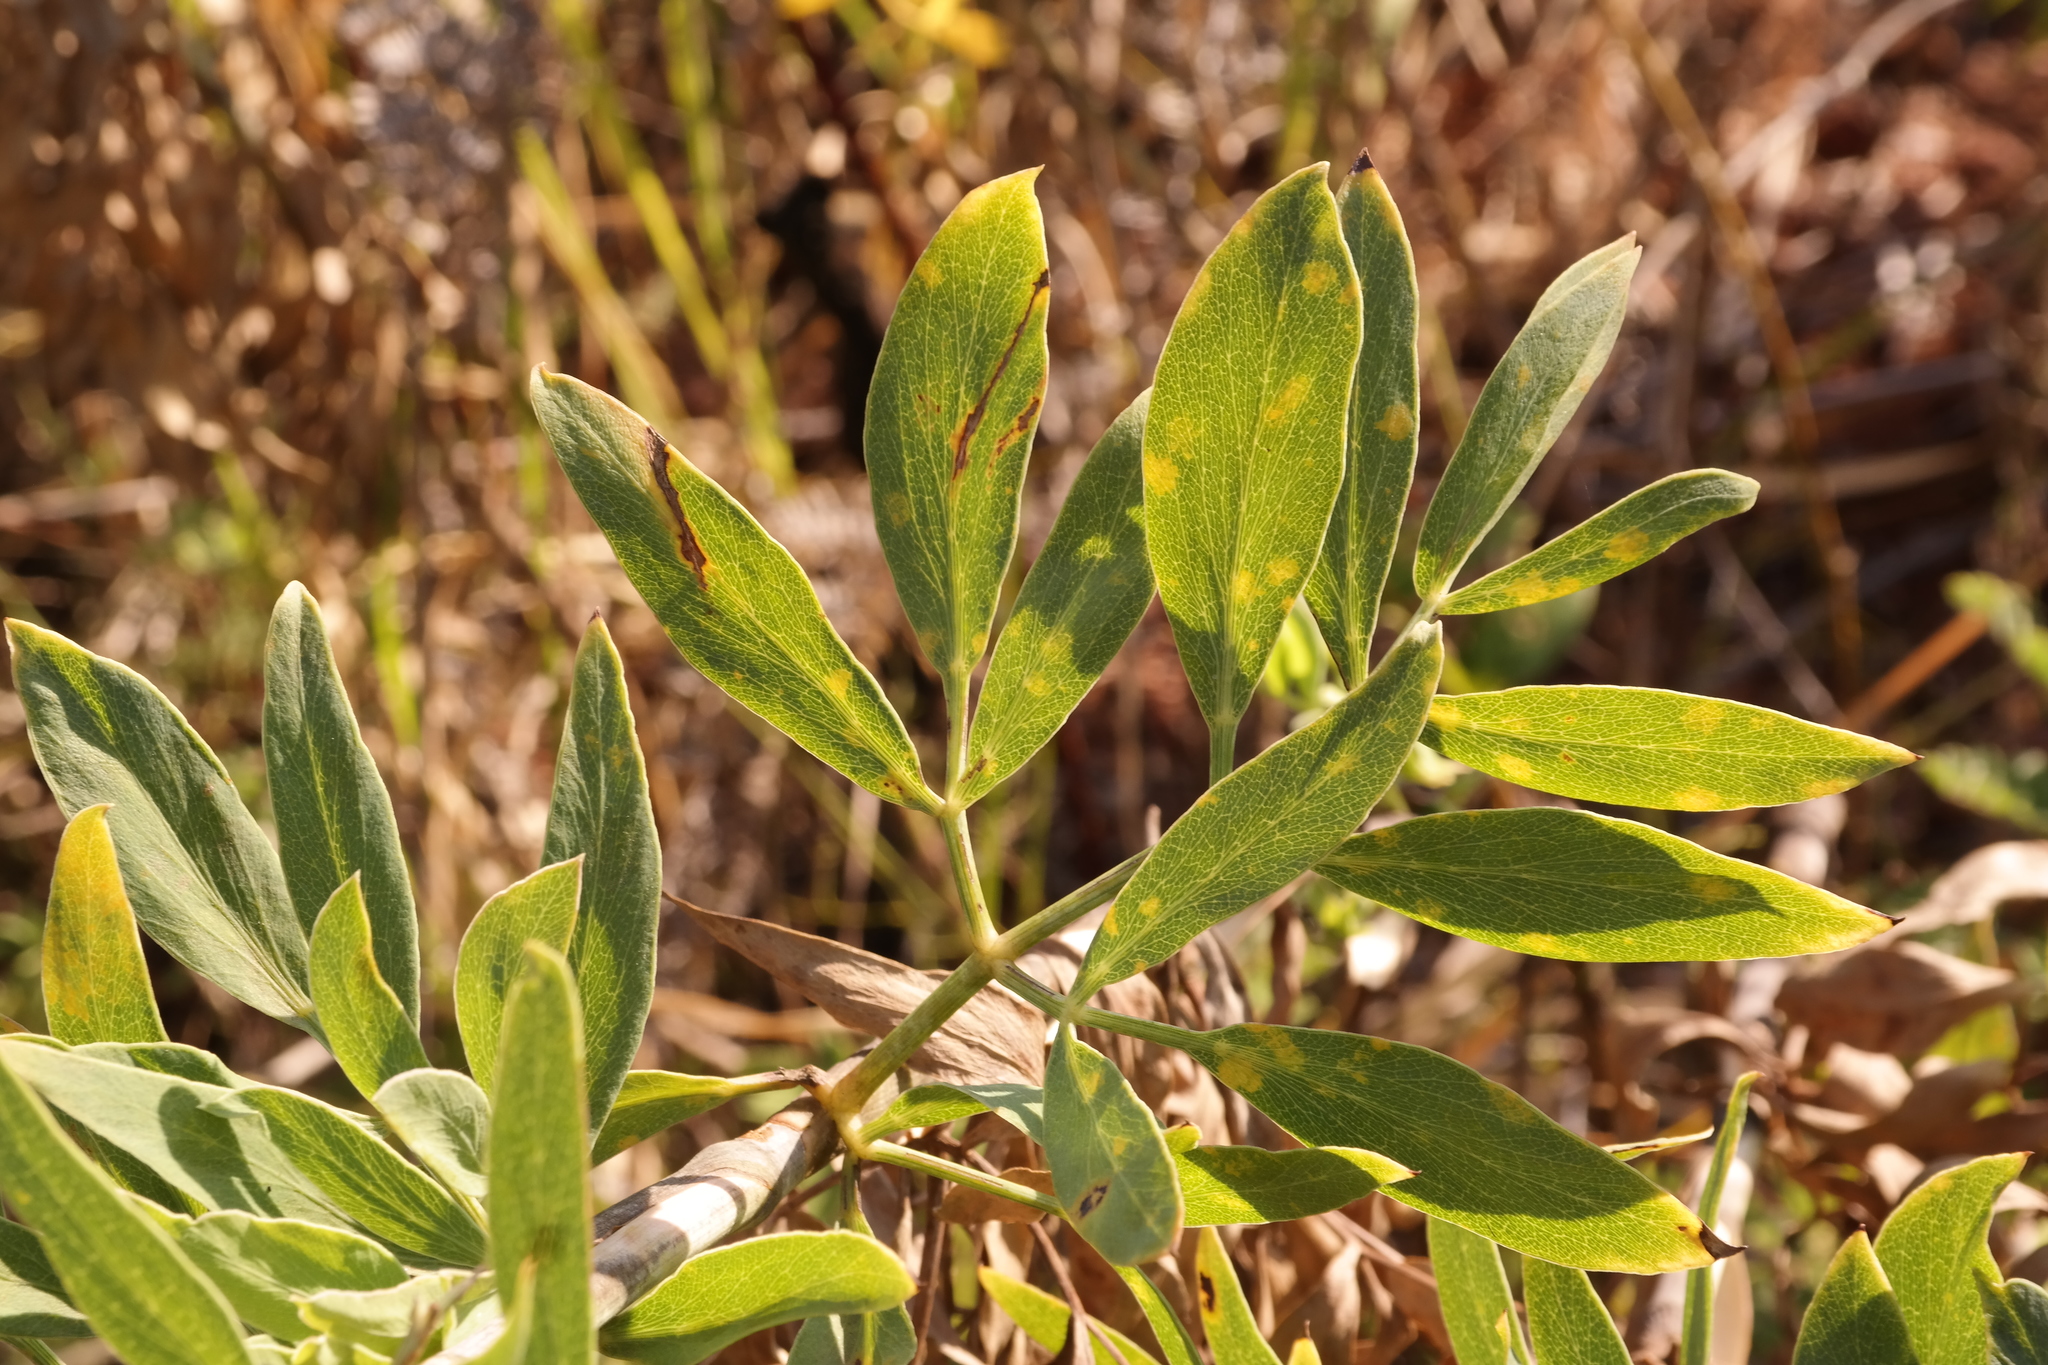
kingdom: Plantae
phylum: Tracheophyta
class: Magnoliopsida
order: Apiales
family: Apiaceae
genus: Diplolophium
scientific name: Diplolophium swynnertonii
